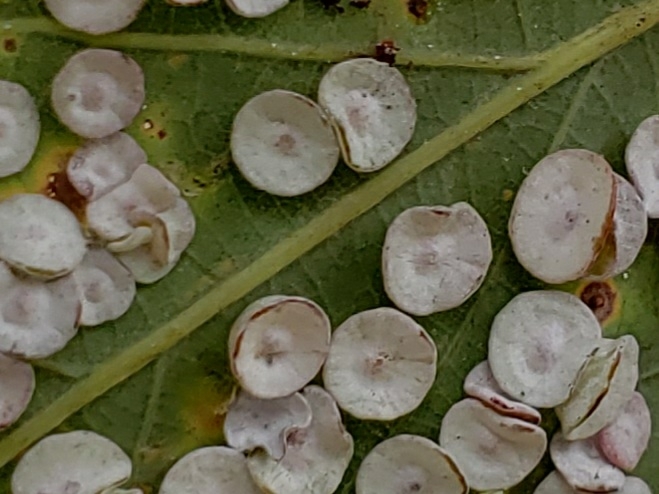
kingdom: Animalia
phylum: Arthropoda
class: Insecta
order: Hymenoptera
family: Cynipidae
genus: Phylloteras
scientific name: Phylloteras poculum
